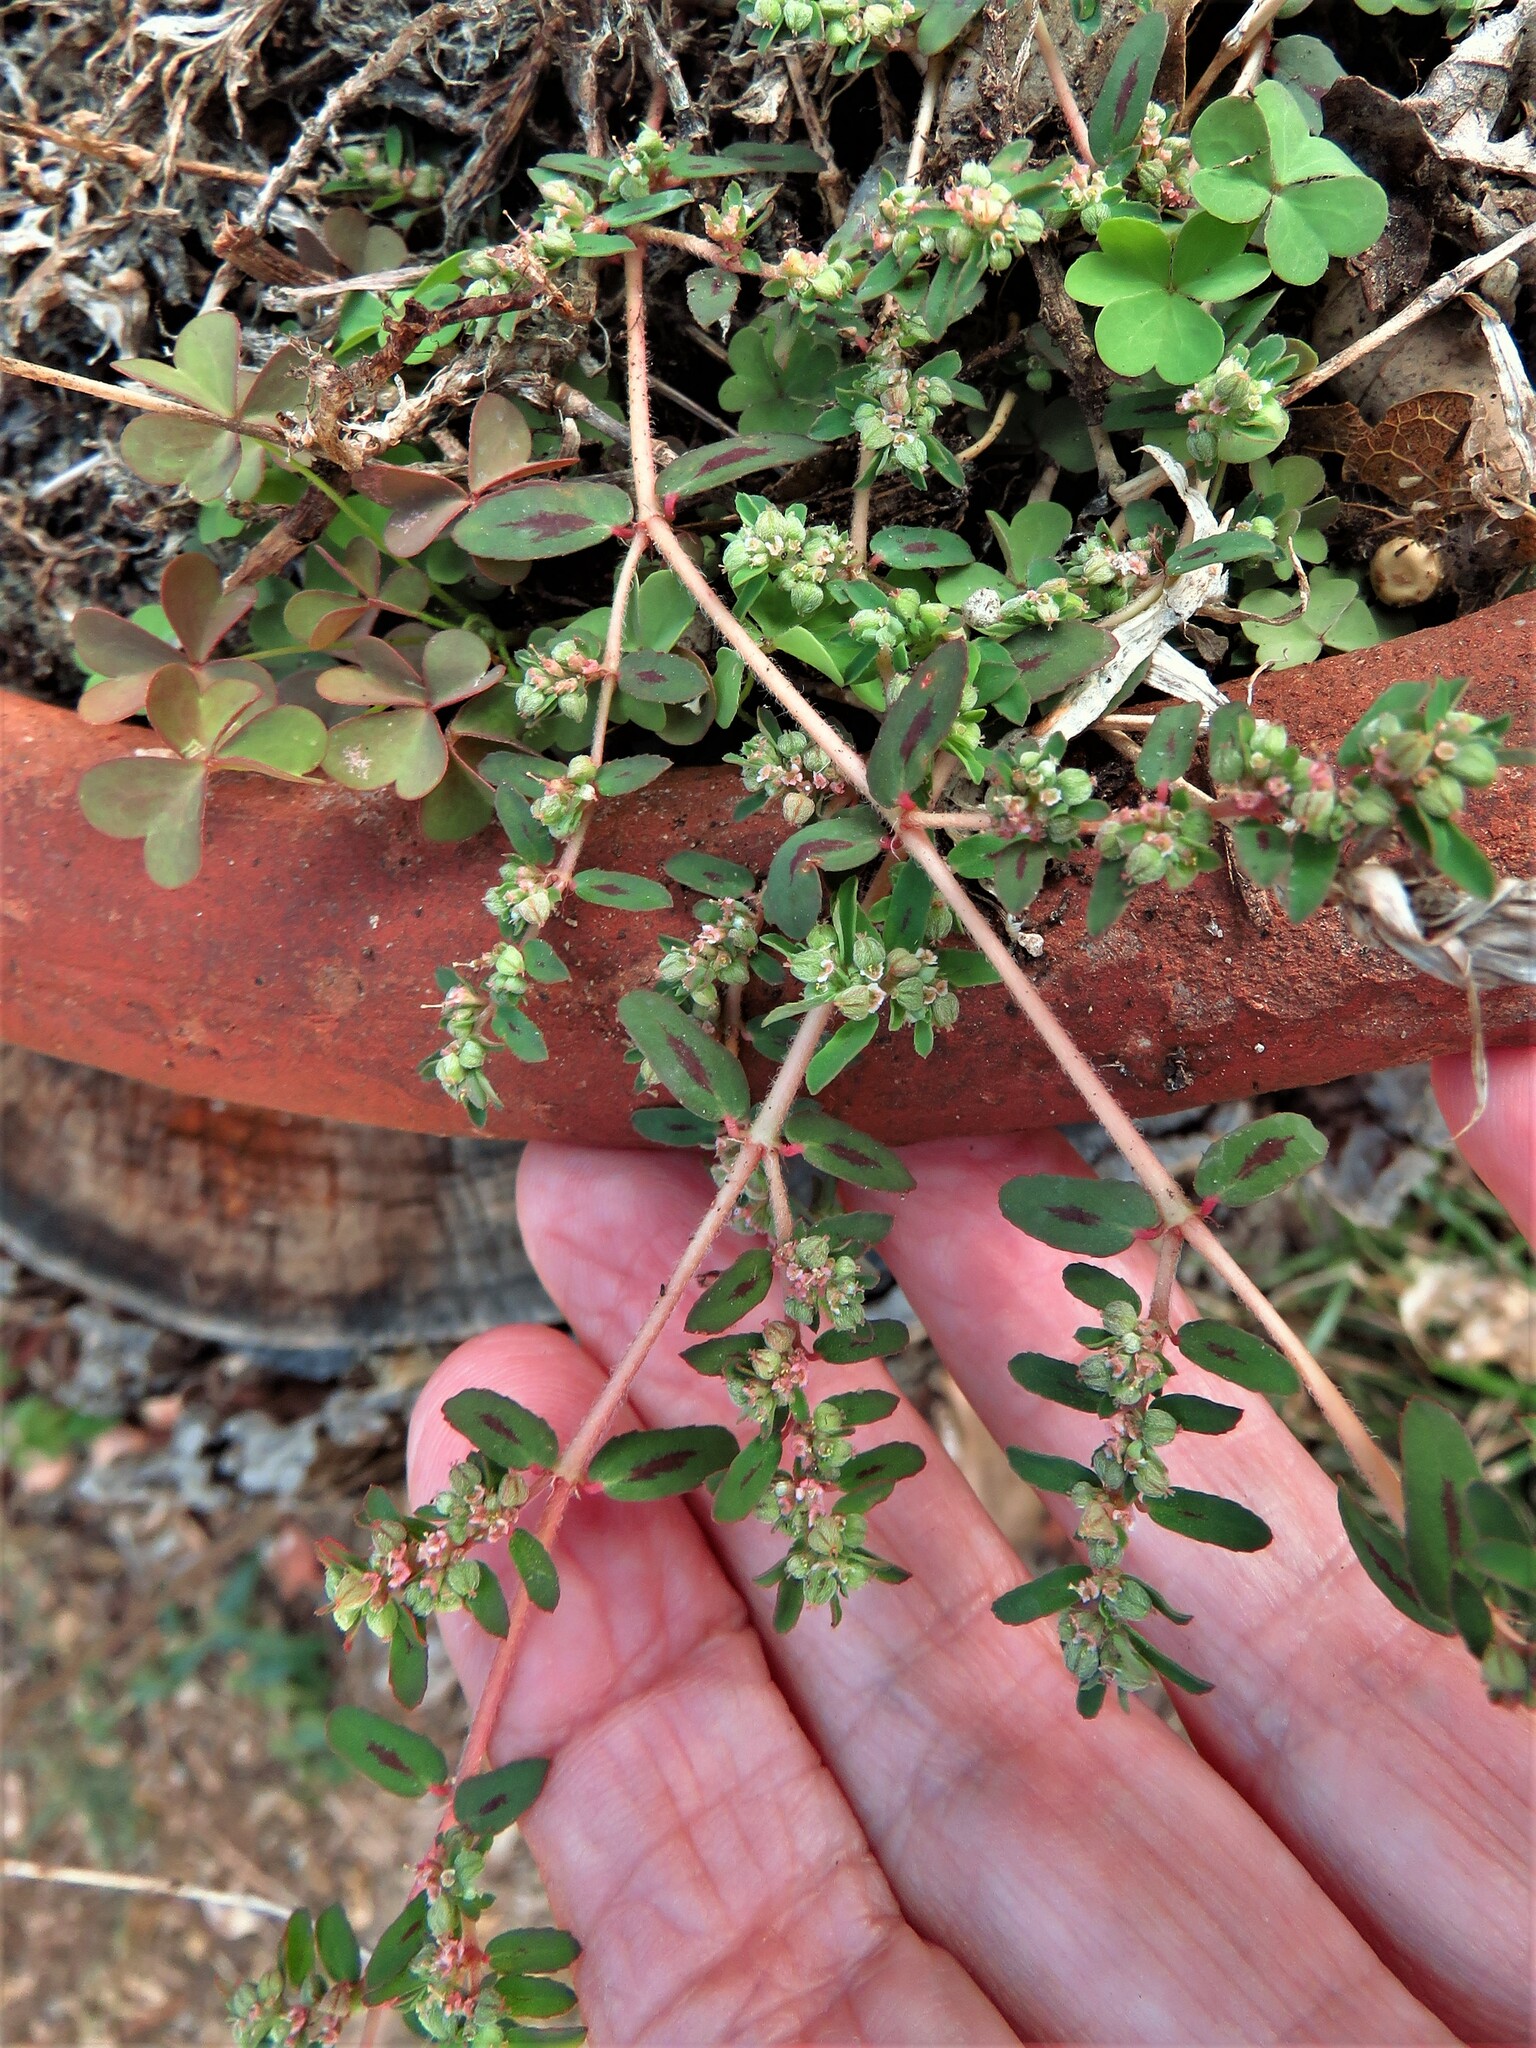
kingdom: Plantae
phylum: Tracheophyta
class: Magnoliopsida
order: Malpighiales
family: Euphorbiaceae
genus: Euphorbia
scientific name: Euphorbia maculata
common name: Spotted spurge
